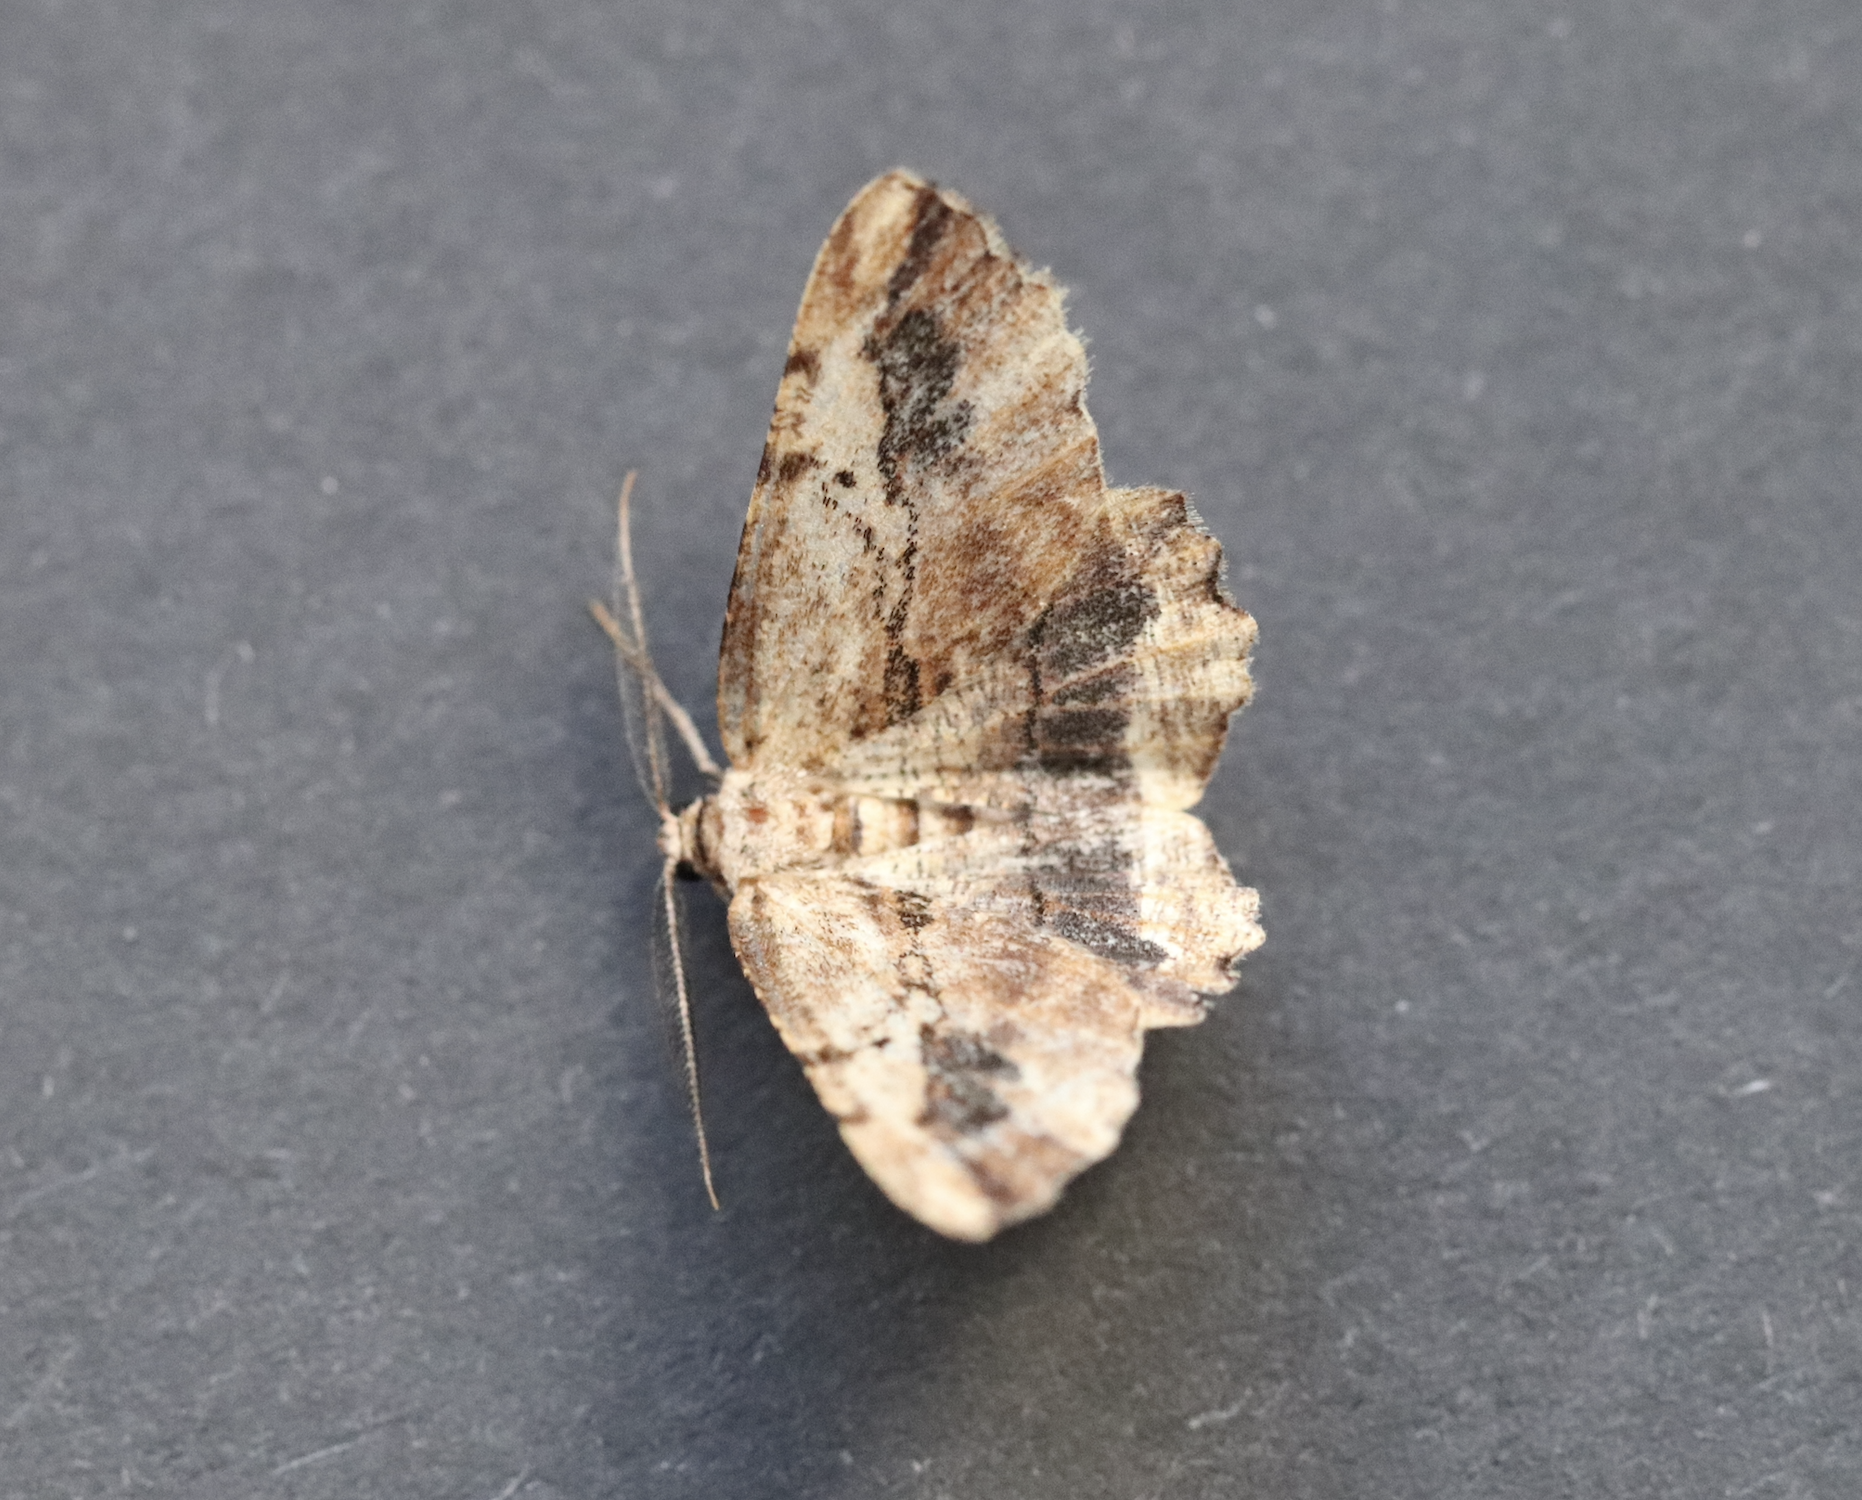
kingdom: Animalia
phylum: Arthropoda
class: Insecta
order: Lepidoptera
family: Geometridae
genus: Menophra
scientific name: Menophra abruptaria
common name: Waved umber
